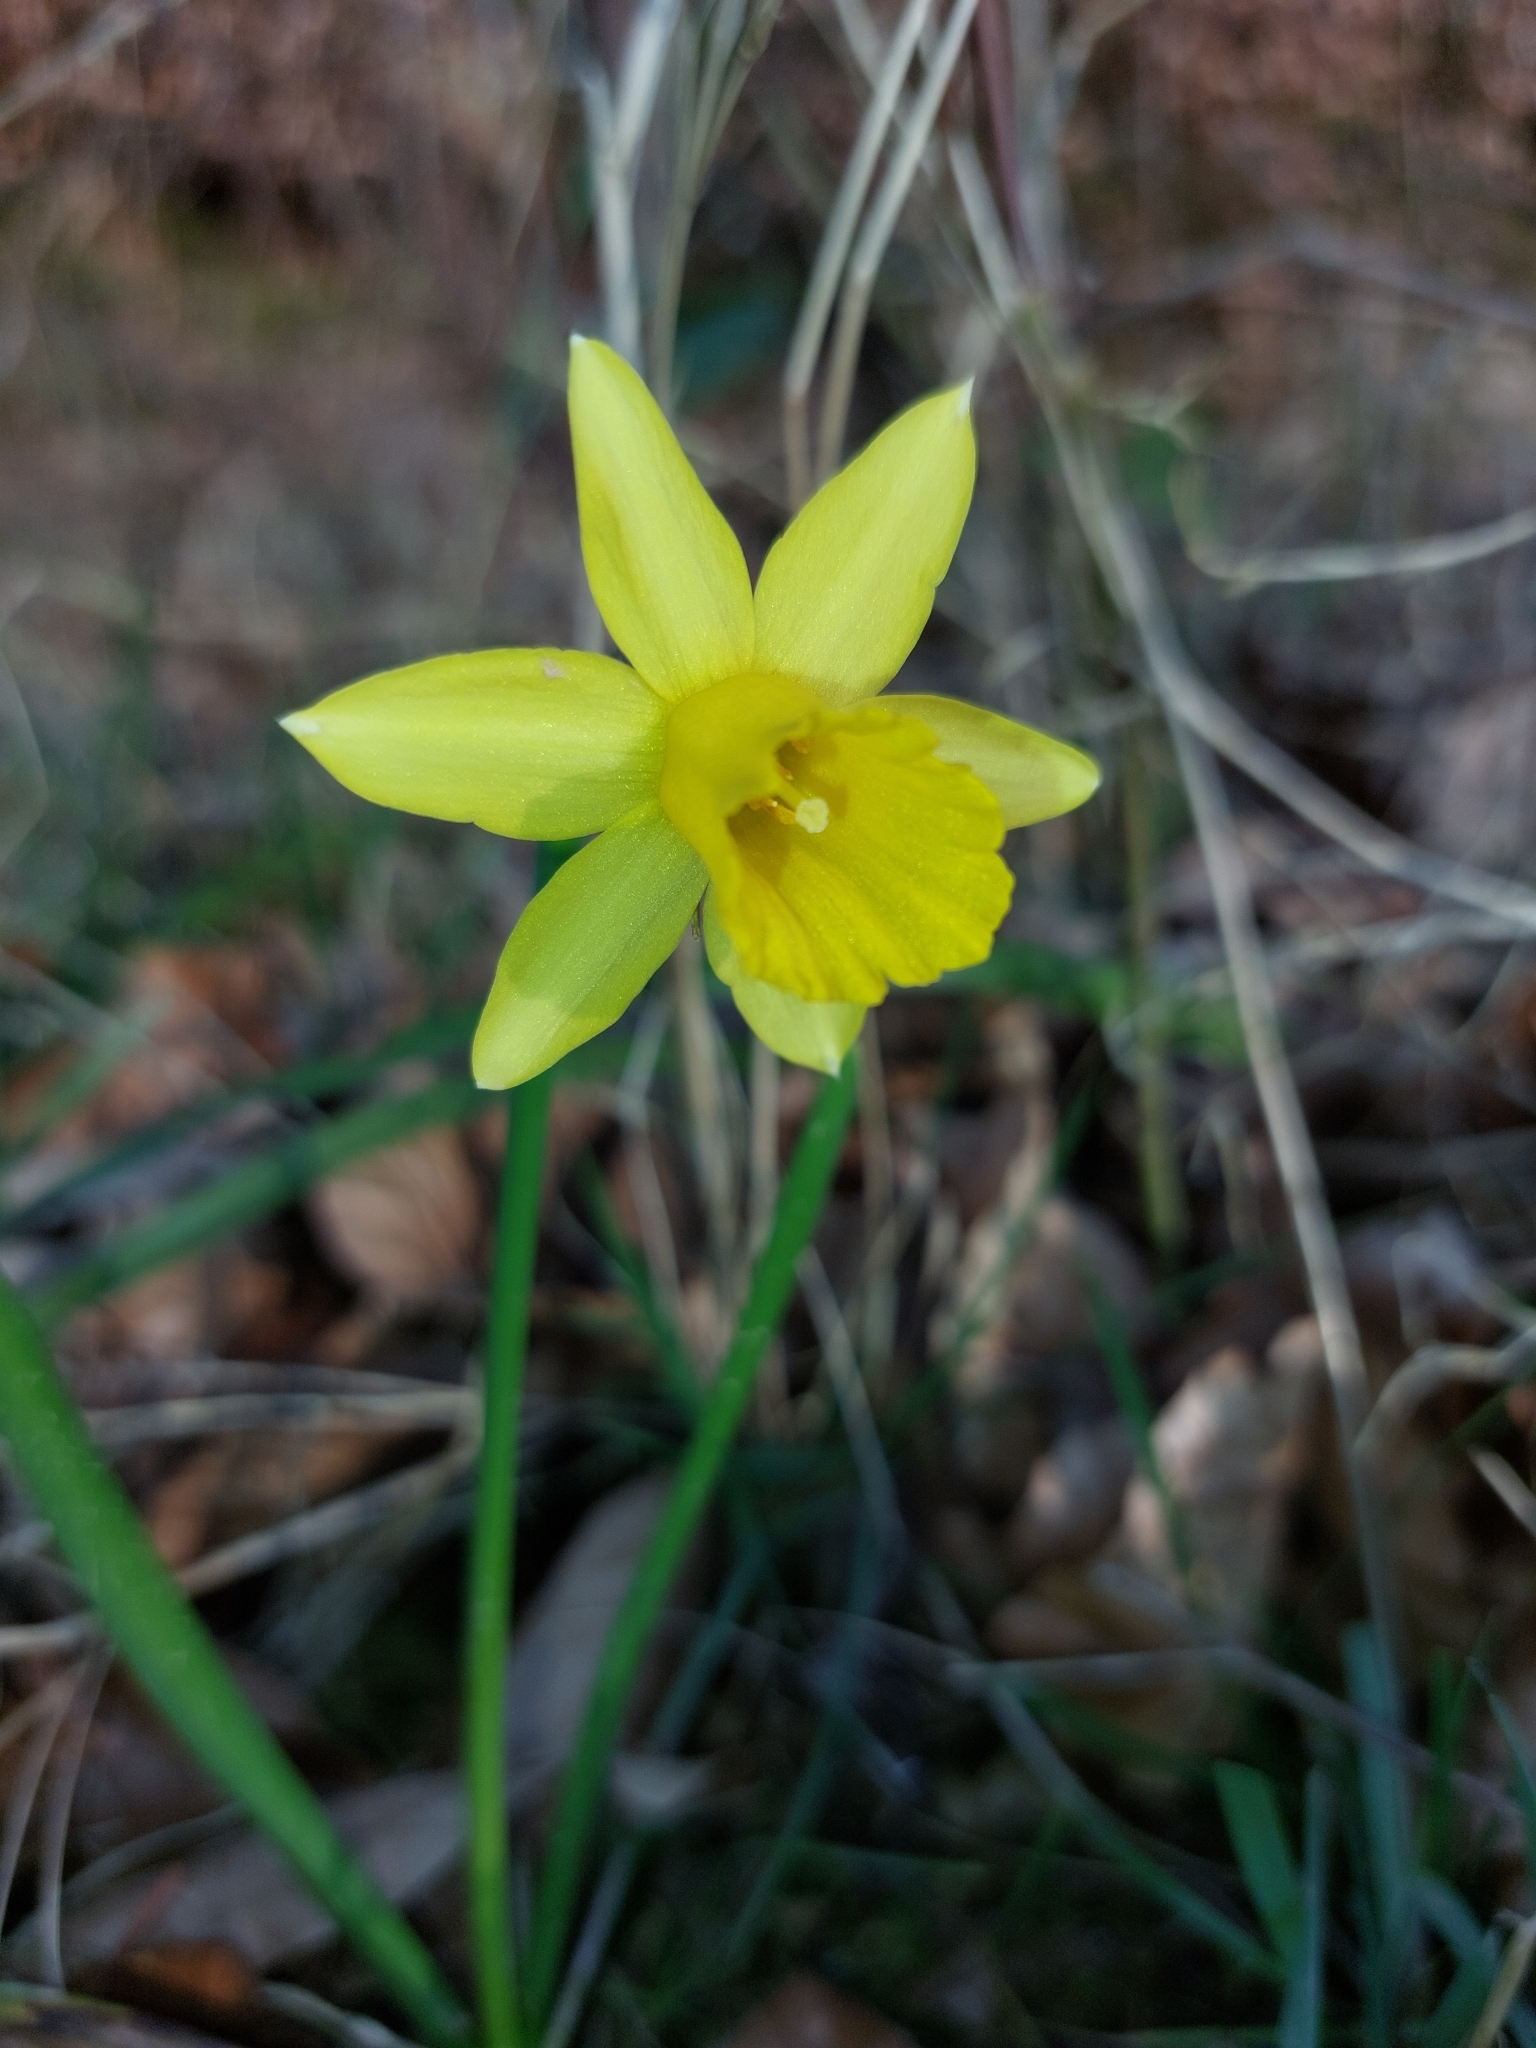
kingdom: Plantae
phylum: Tracheophyta
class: Liliopsida
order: Asparagales
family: Amaryllidaceae
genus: Narcissus
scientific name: Narcissus pseudonarcissus
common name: Daffodil
